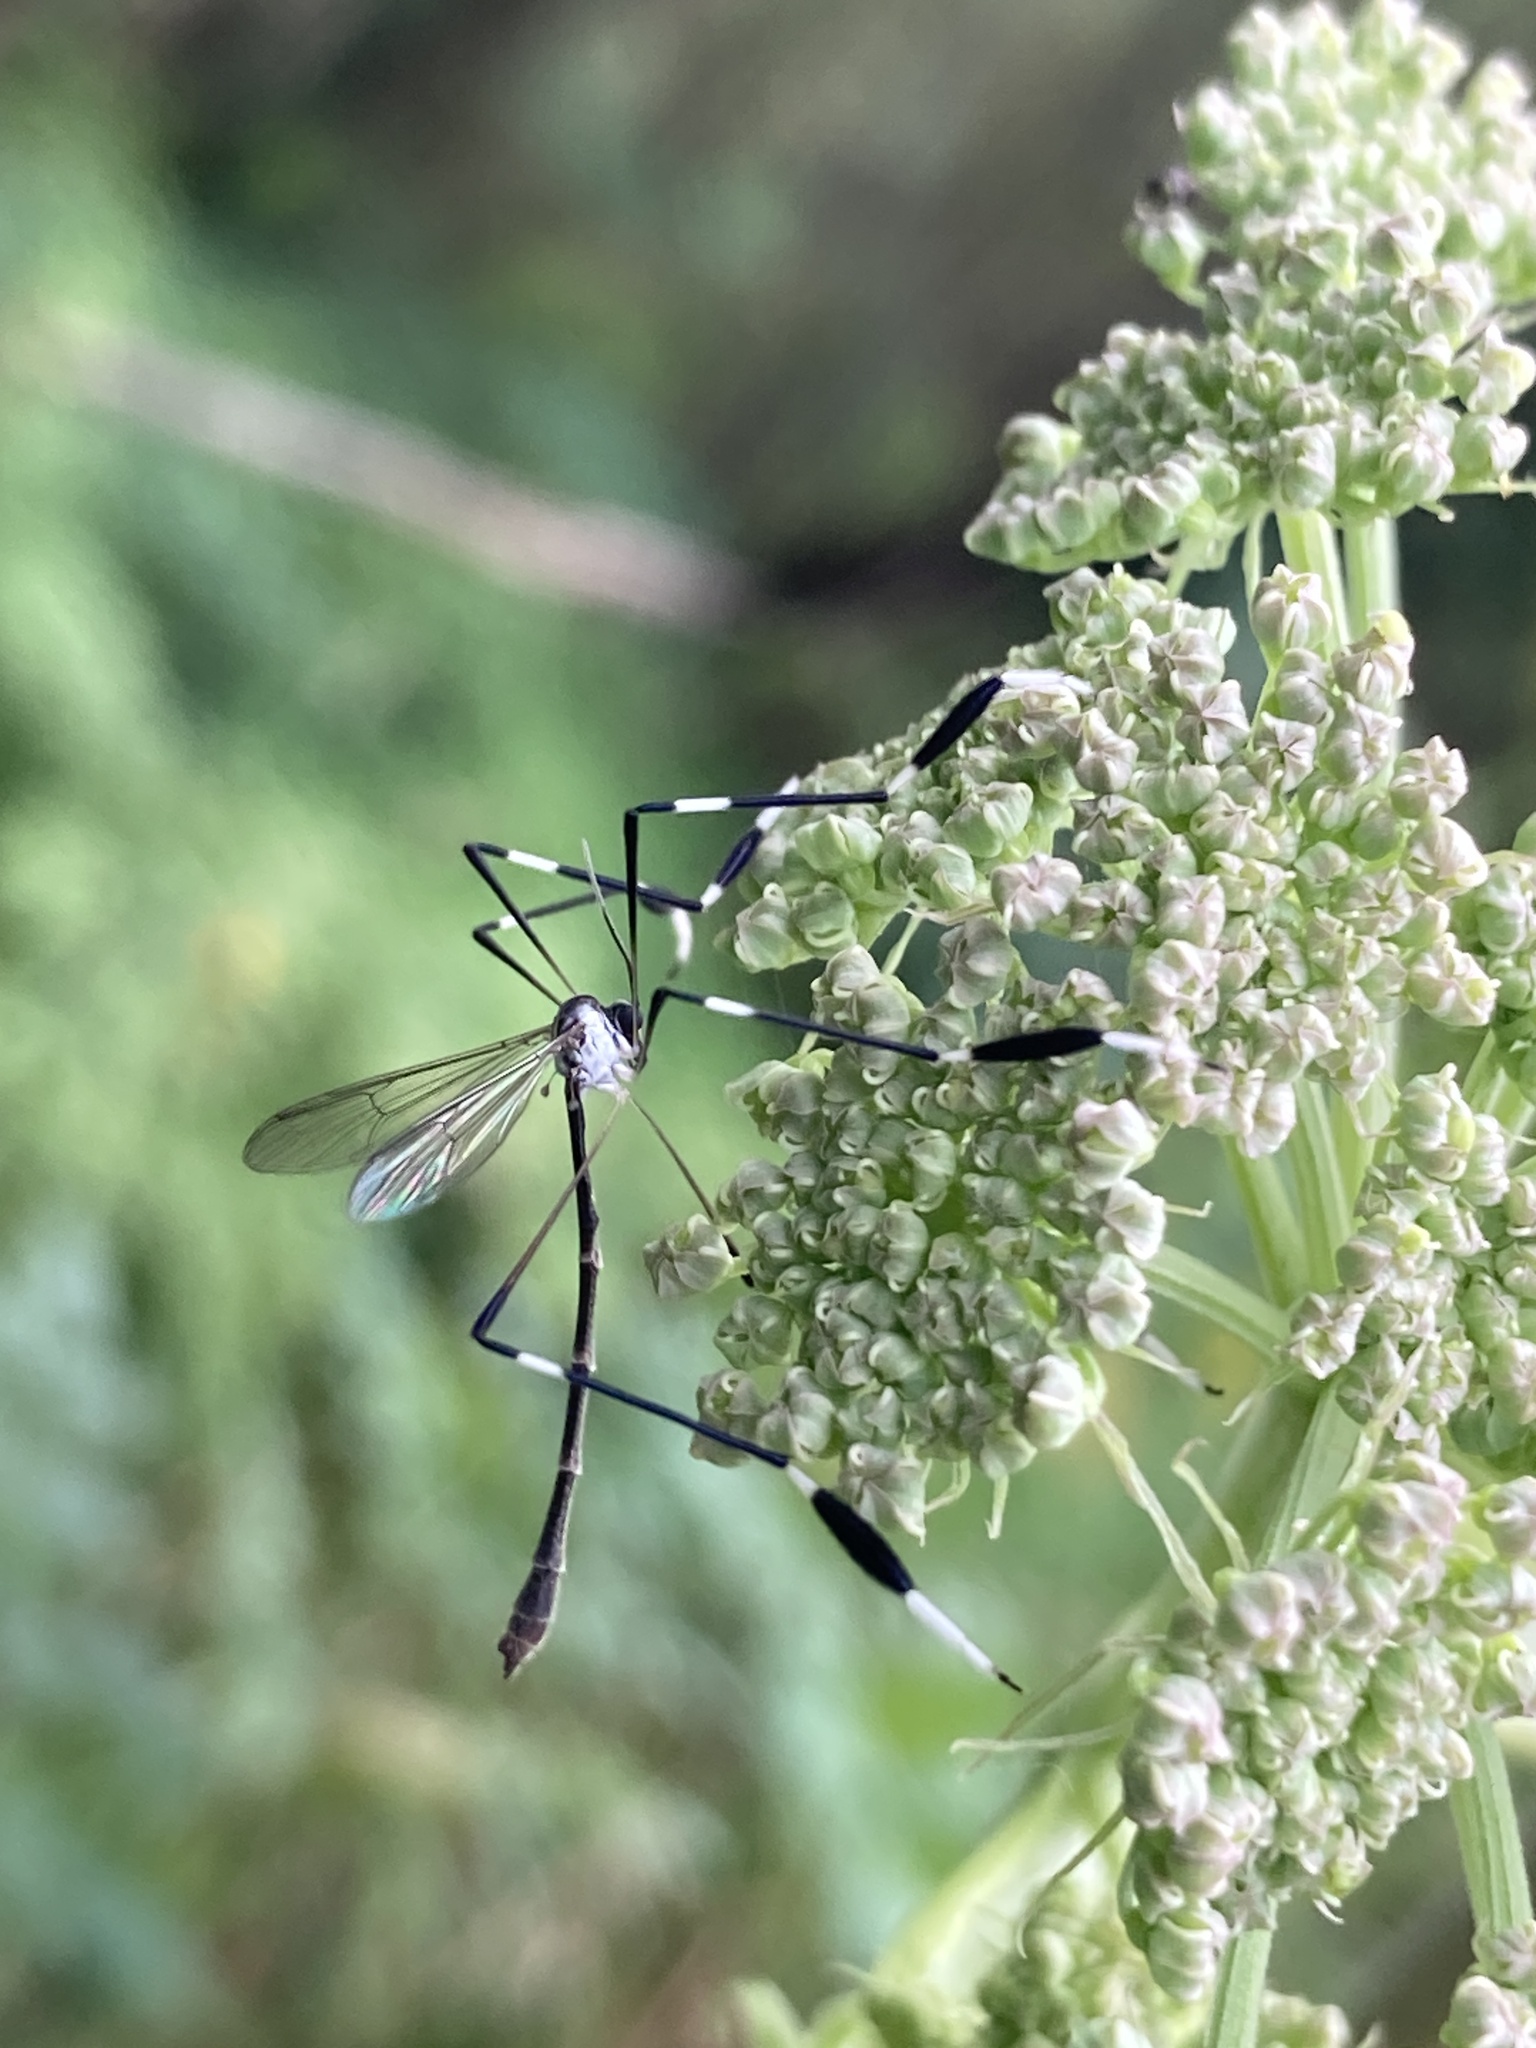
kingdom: Animalia
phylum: Arthropoda
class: Insecta
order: Diptera
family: Ptychopteridae
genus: Bittacomorpha
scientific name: Bittacomorpha clavipes
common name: Eastern phantom crane fly
